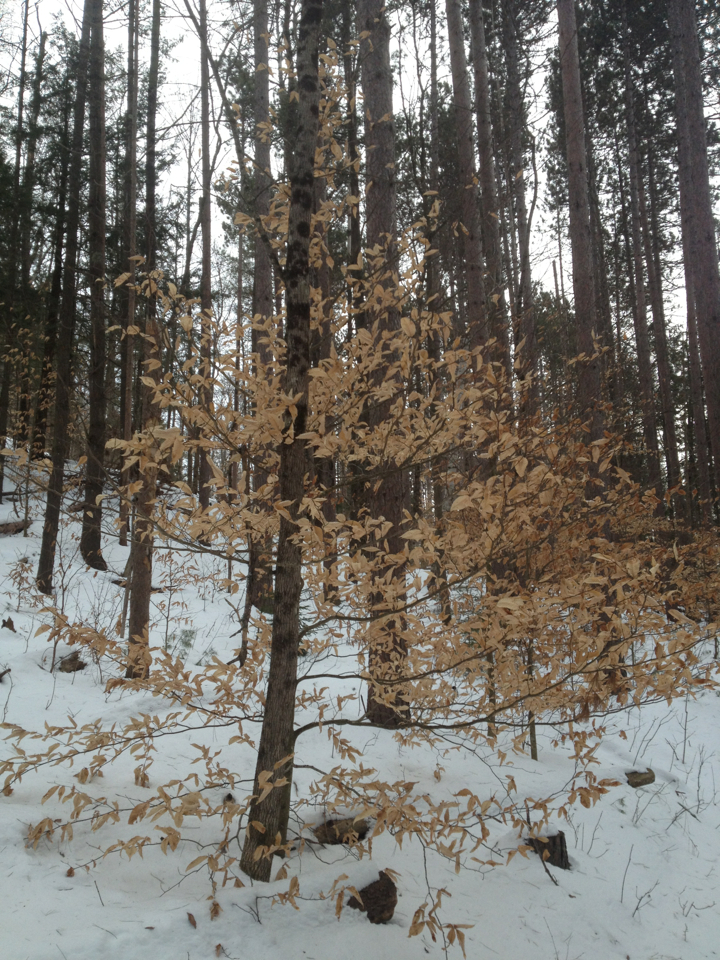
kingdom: Plantae
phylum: Tracheophyta
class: Magnoliopsida
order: Fagales
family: Fagaceae
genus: Fagus
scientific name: Fagus grandifolia
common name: American beech
